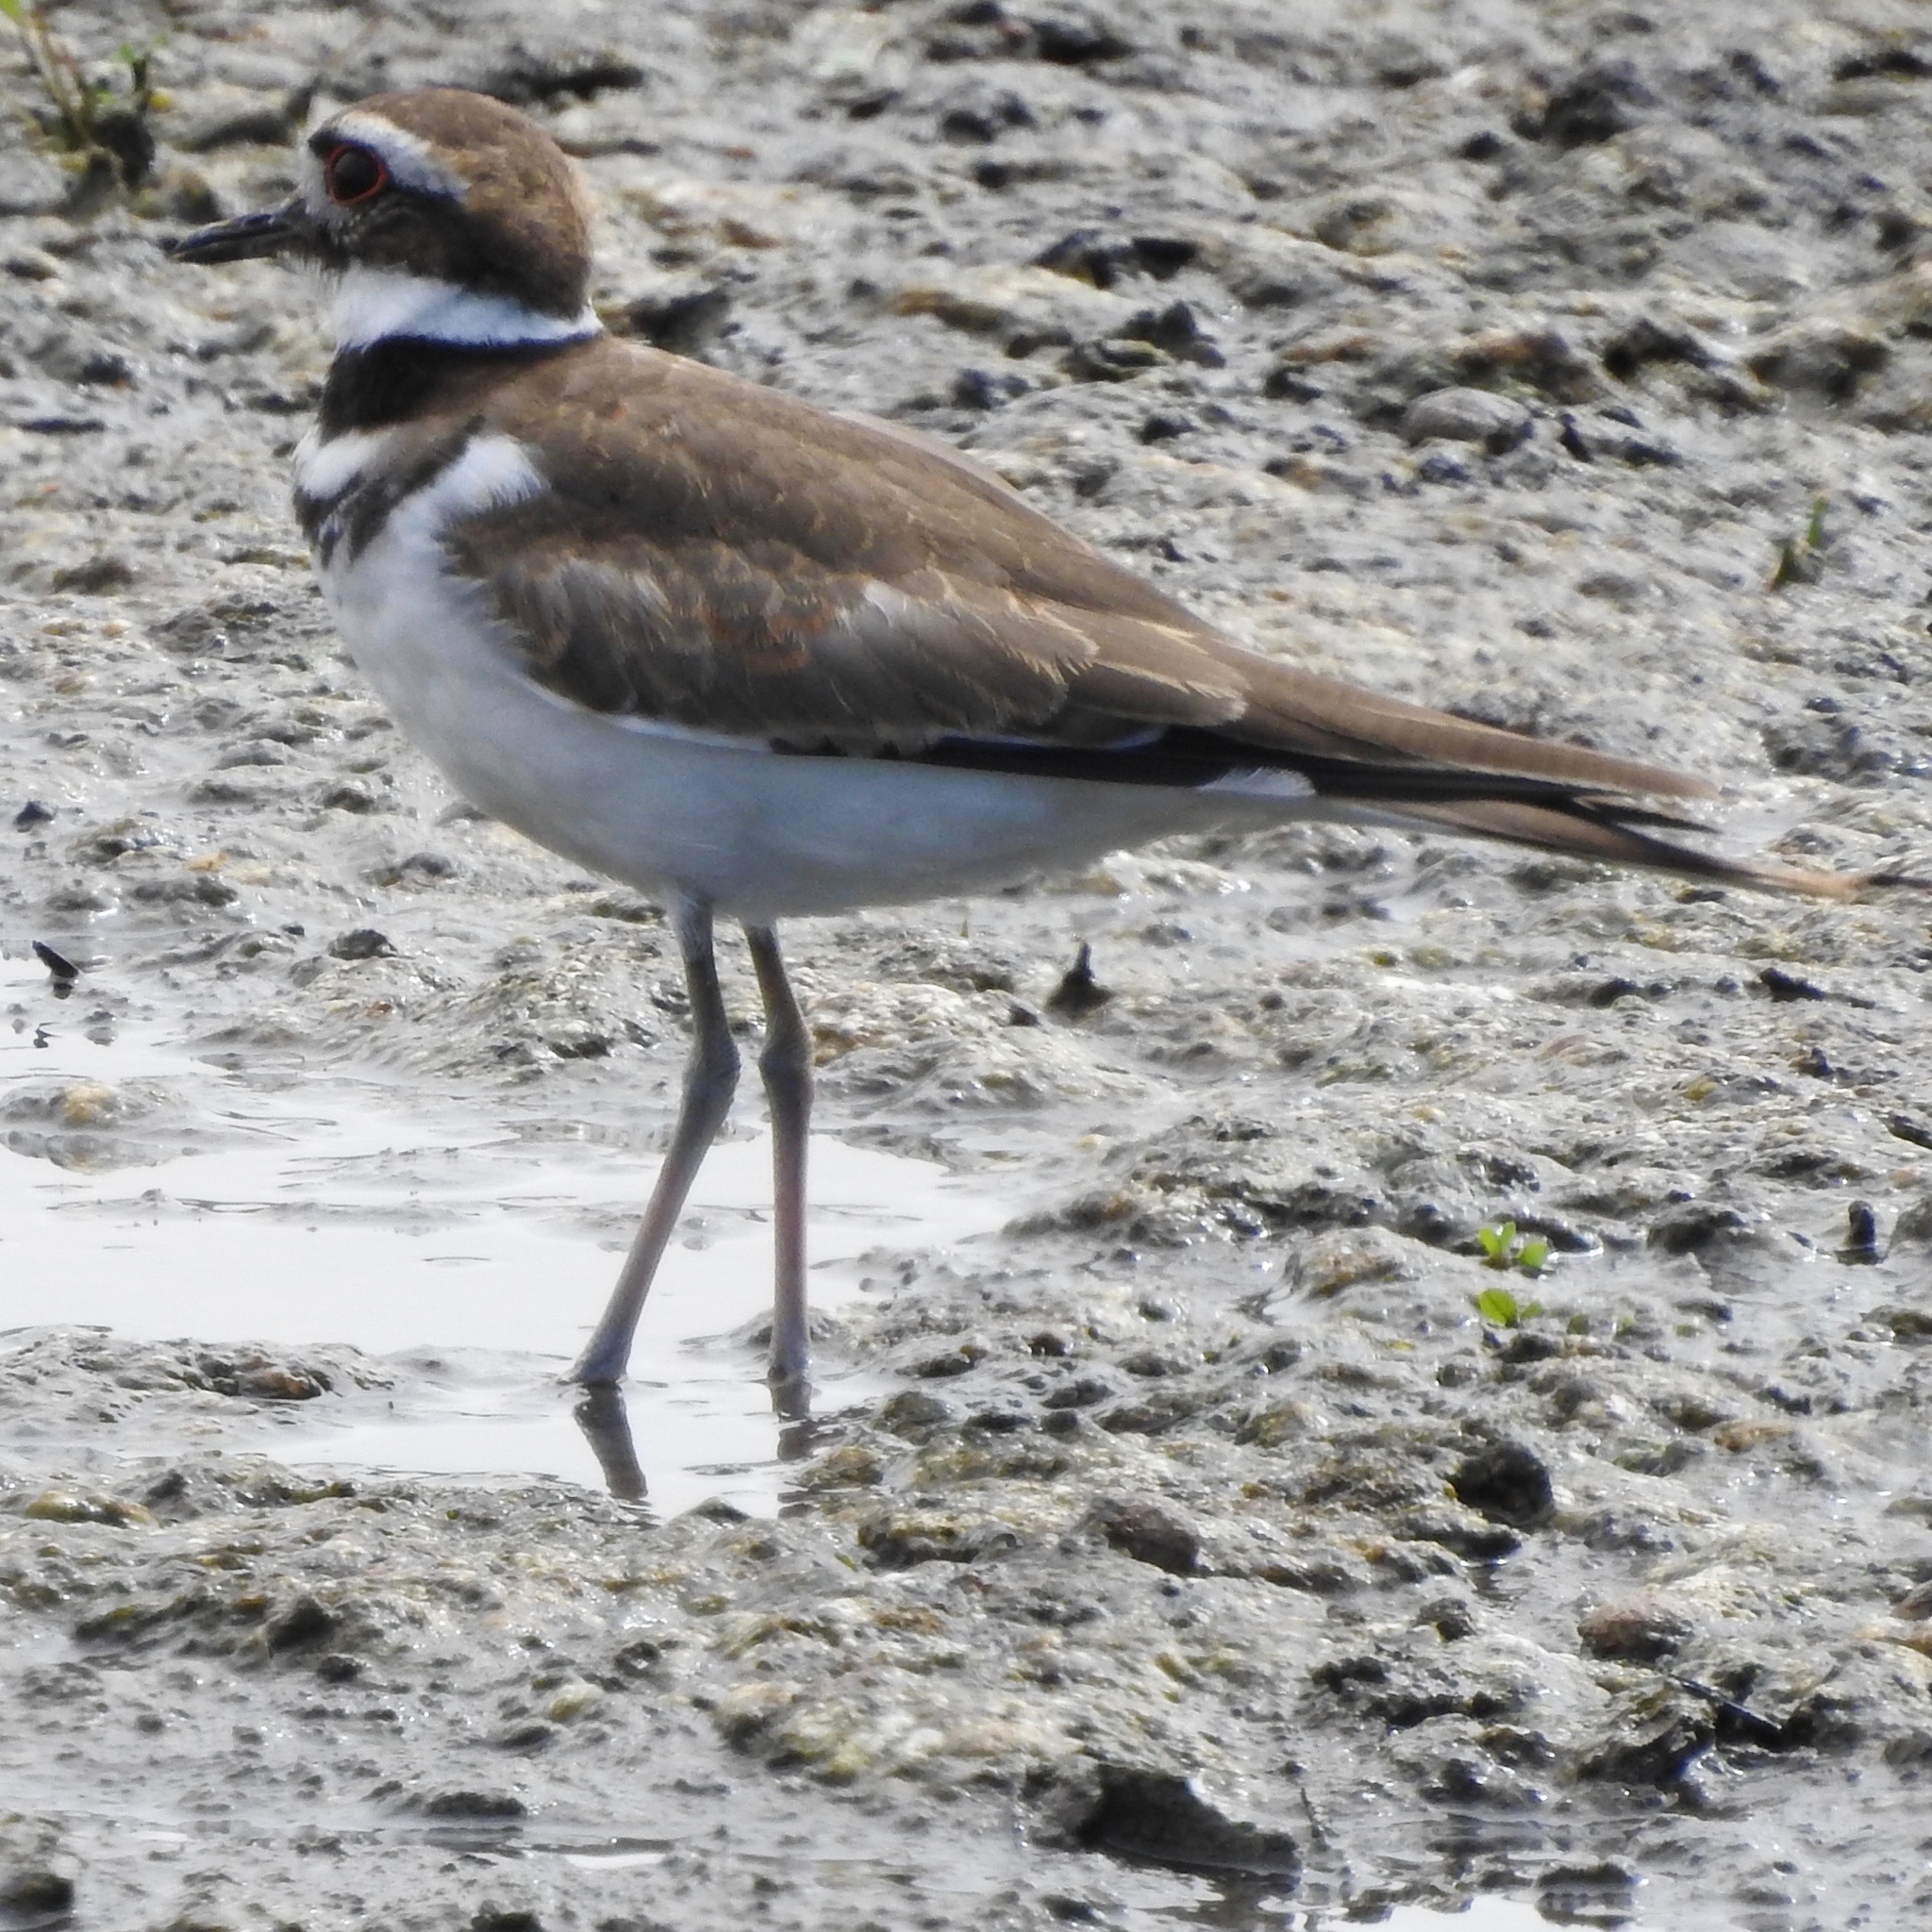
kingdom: Animalia
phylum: Chordata
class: Aves
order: Charadriiformes
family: Charadriidae
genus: Charadrius
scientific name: Charadrius vociferus
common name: Killdeer
